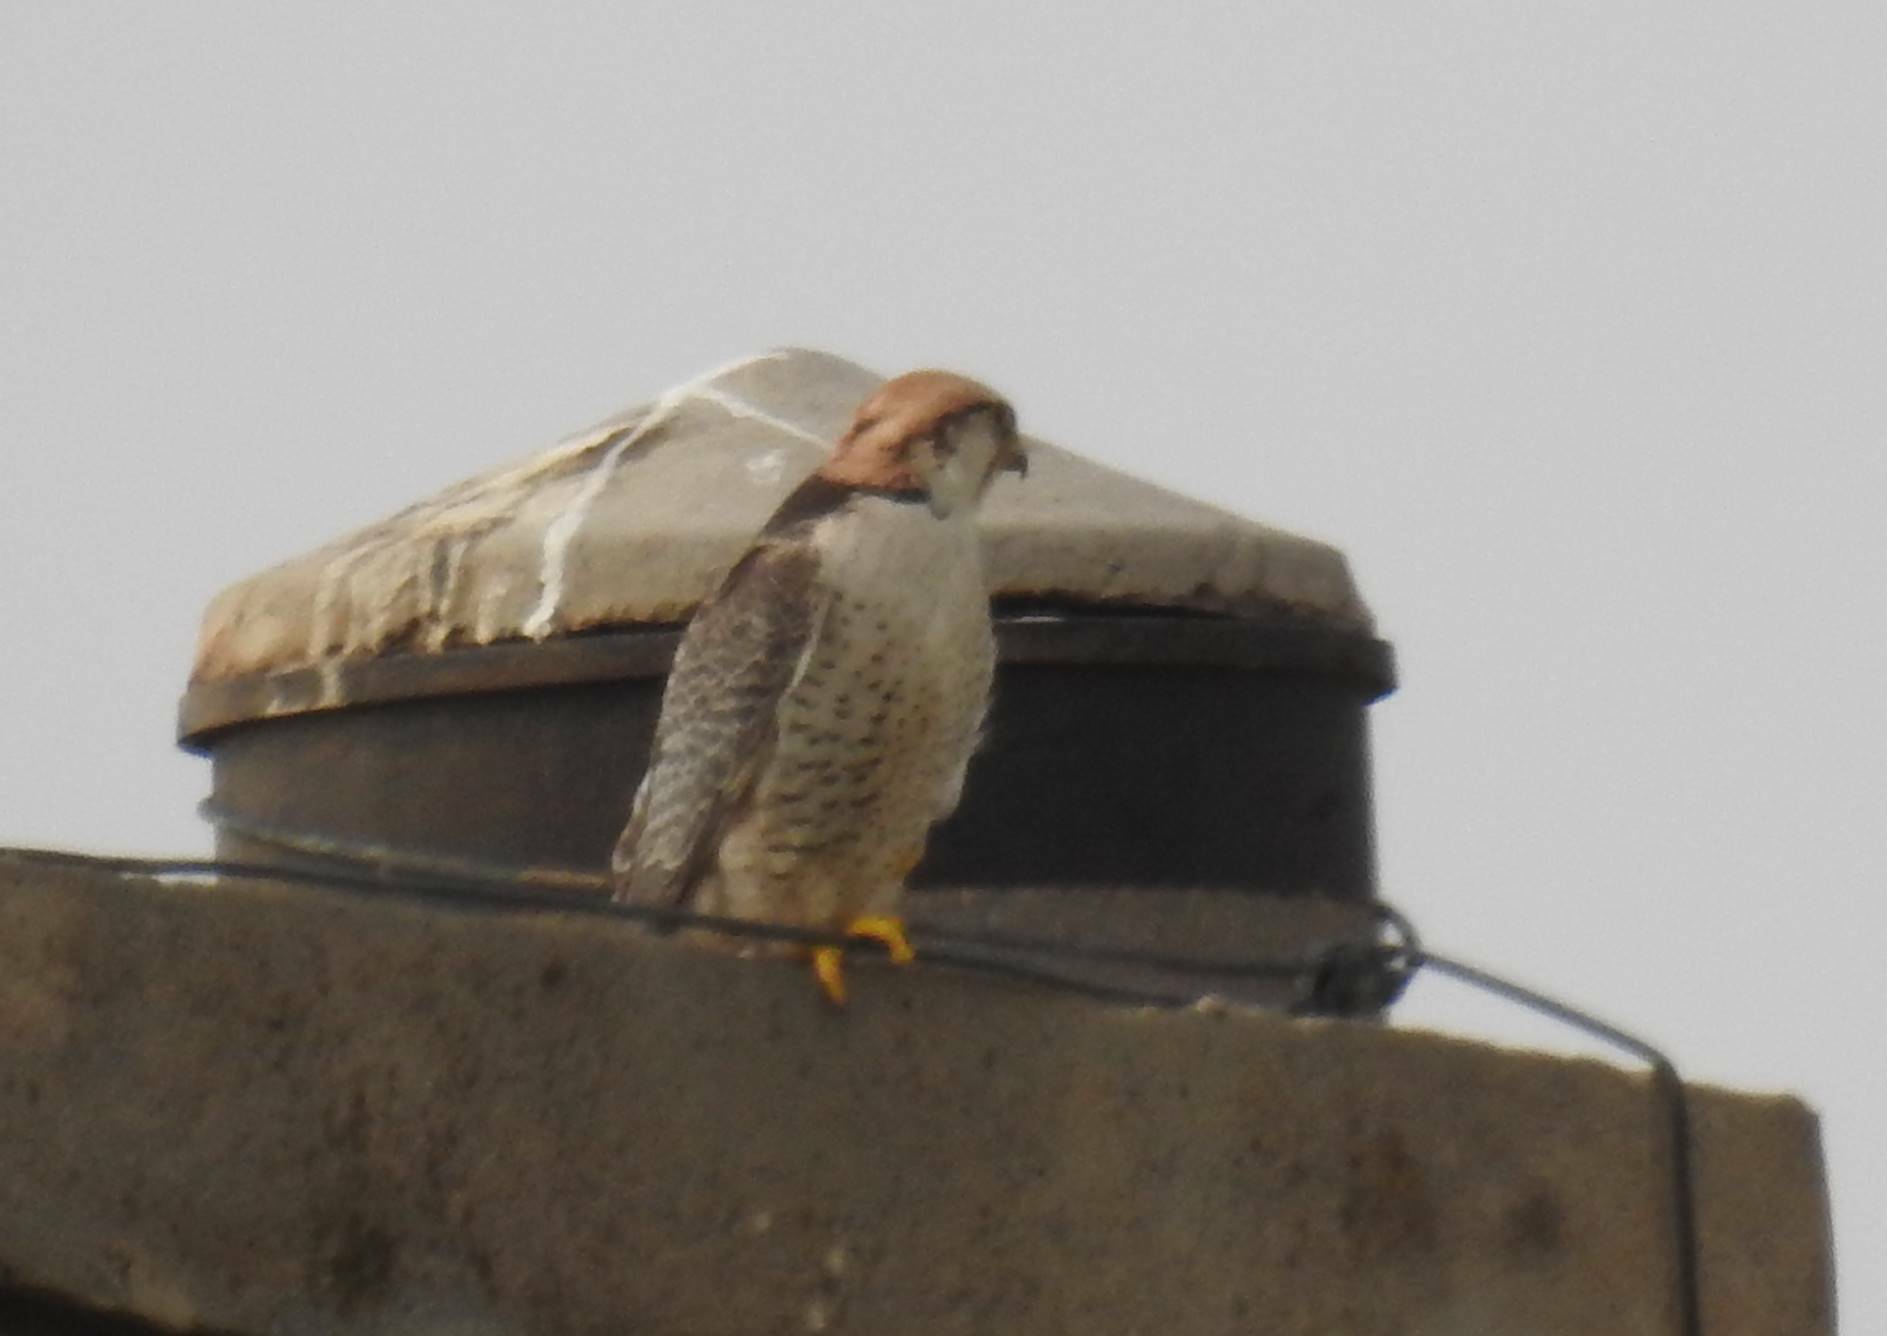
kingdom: Animalia
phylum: Chordata
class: Aves
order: Falconiformes
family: Falconidae
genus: Falco
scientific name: Falco biarmicus
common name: Lanner falcon
